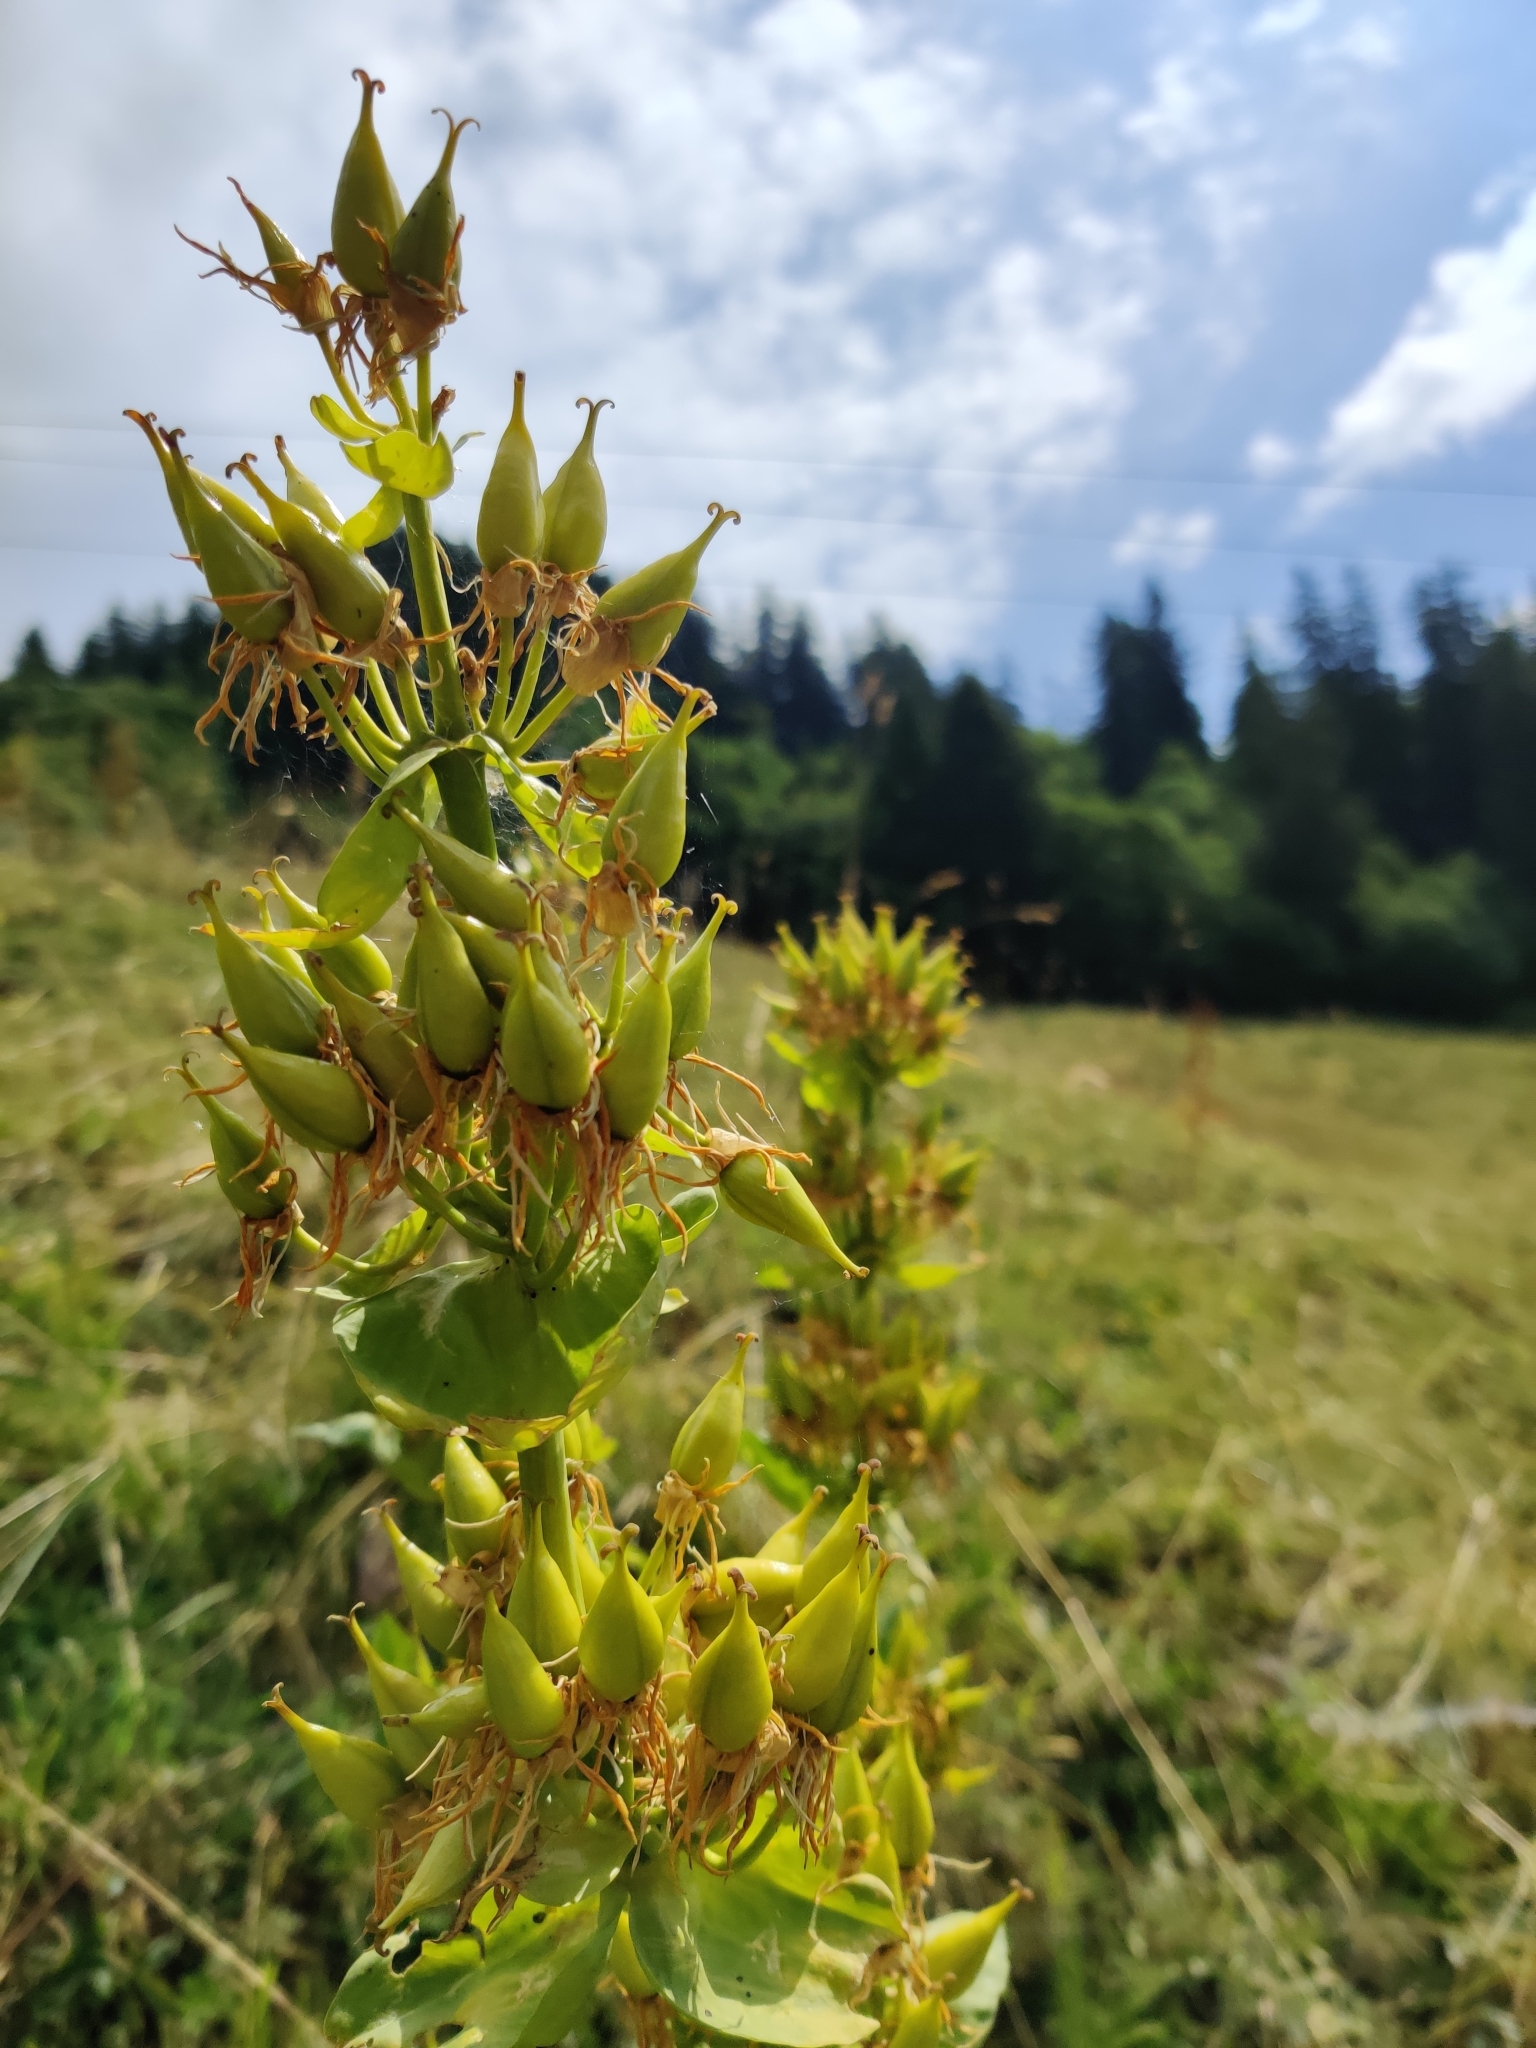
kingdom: Plantae
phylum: Tracheophyta
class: Magnoliopsida
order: Gentianales
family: Gentianaceae
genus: Gentiana
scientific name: Gentiana lutea
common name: Great yellow gentian
